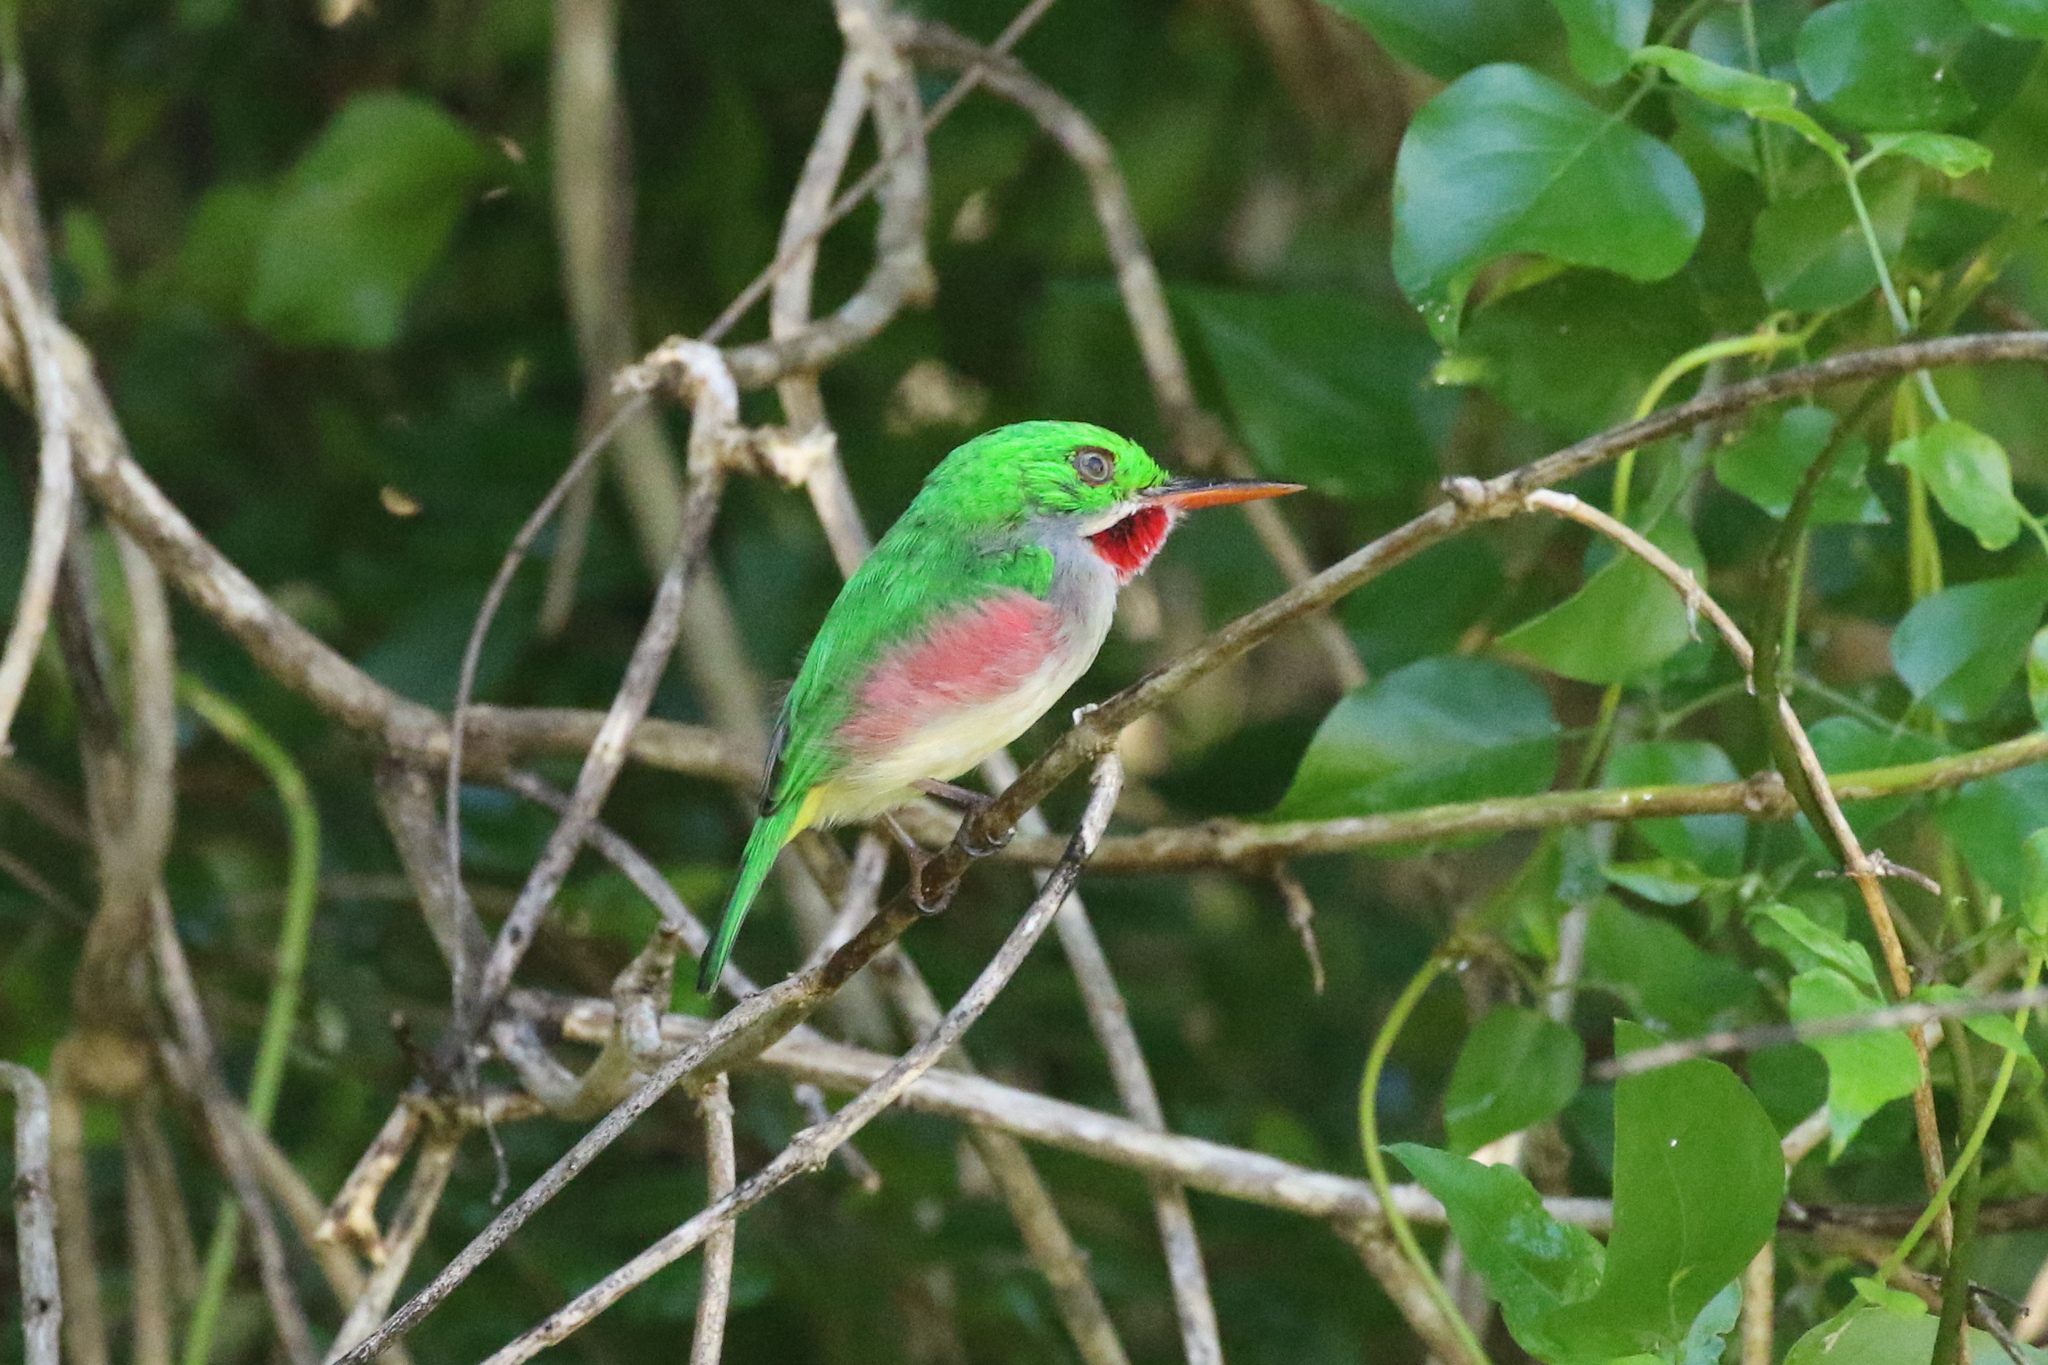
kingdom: Animalia
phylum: Chordata
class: Aves
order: Coraciiformes
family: Todidae
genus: Todus
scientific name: Todus subulatus
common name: Broad-billed tody
